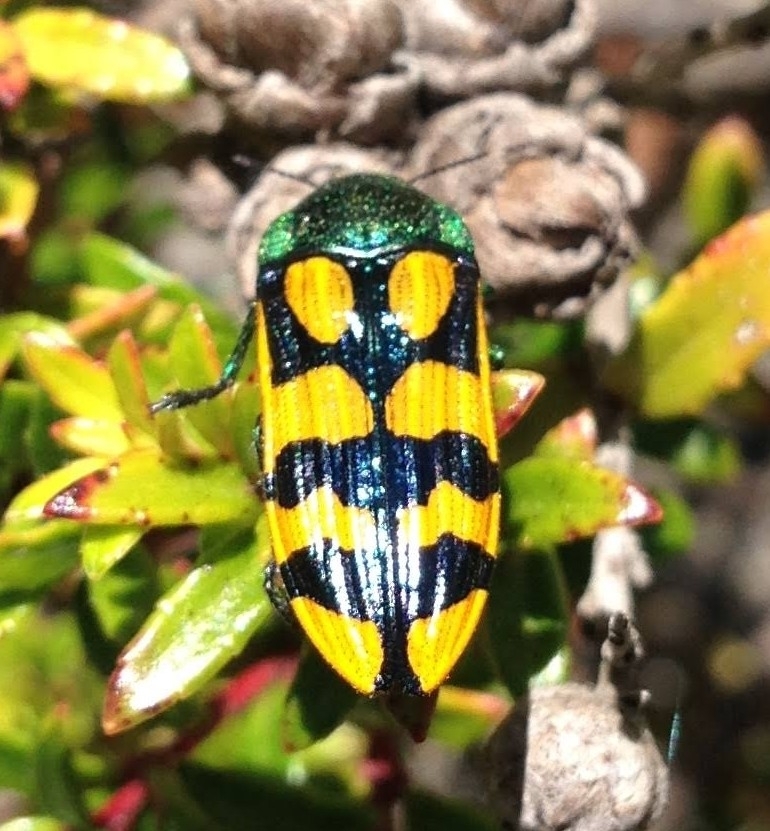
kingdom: Animalia
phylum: Arthropoda
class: Insecta
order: Coleoptera
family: Buprestidae
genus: Conognatha
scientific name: Conognatha viridiventris
